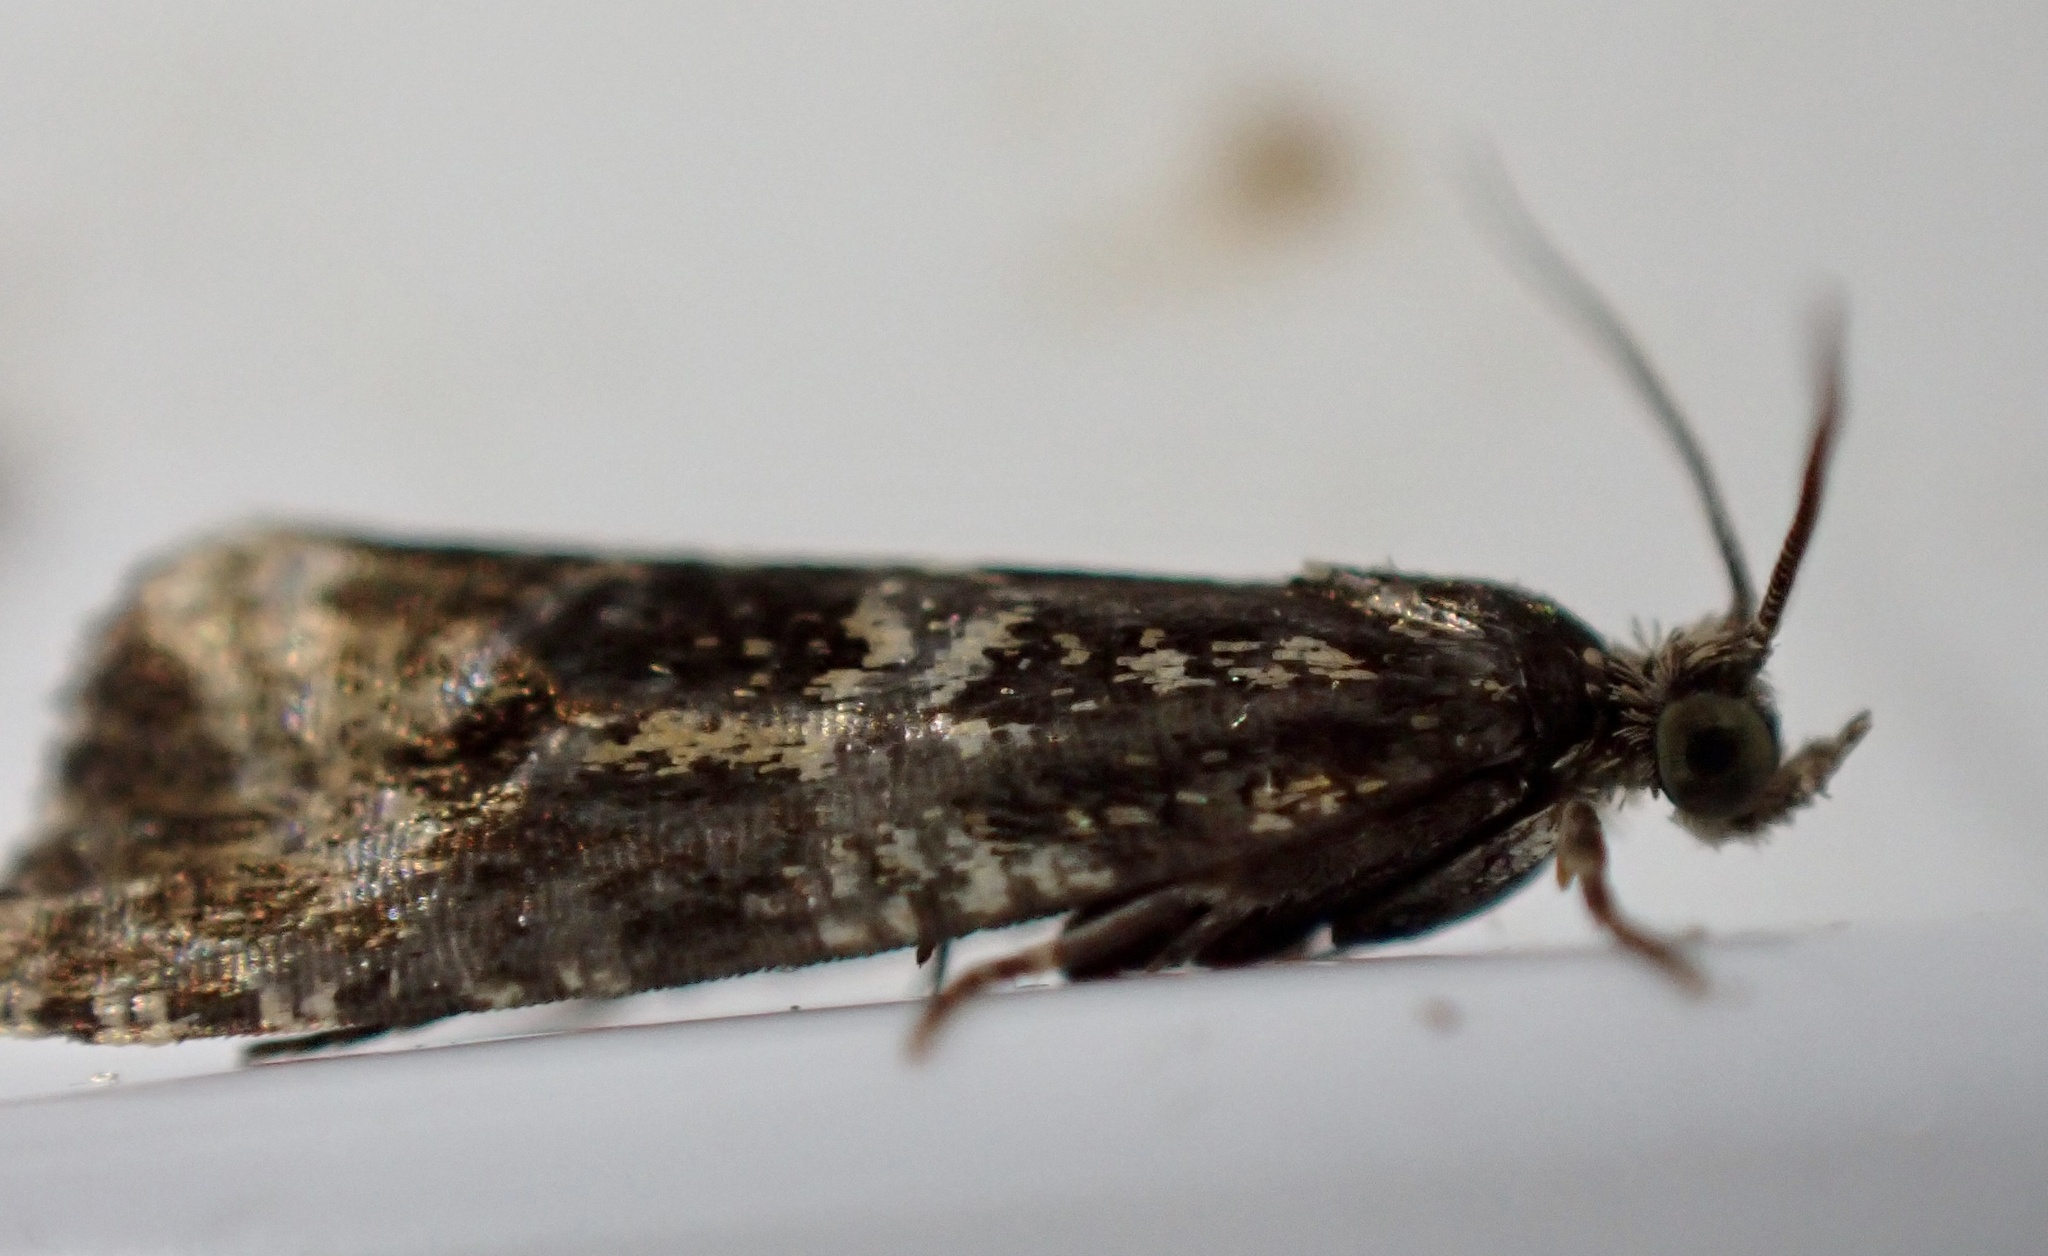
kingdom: Animalia
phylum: Arthropoda
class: Insecta
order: Lepidoptera
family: Tortricidae
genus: Syricoris
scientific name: Syricoris lacunana
